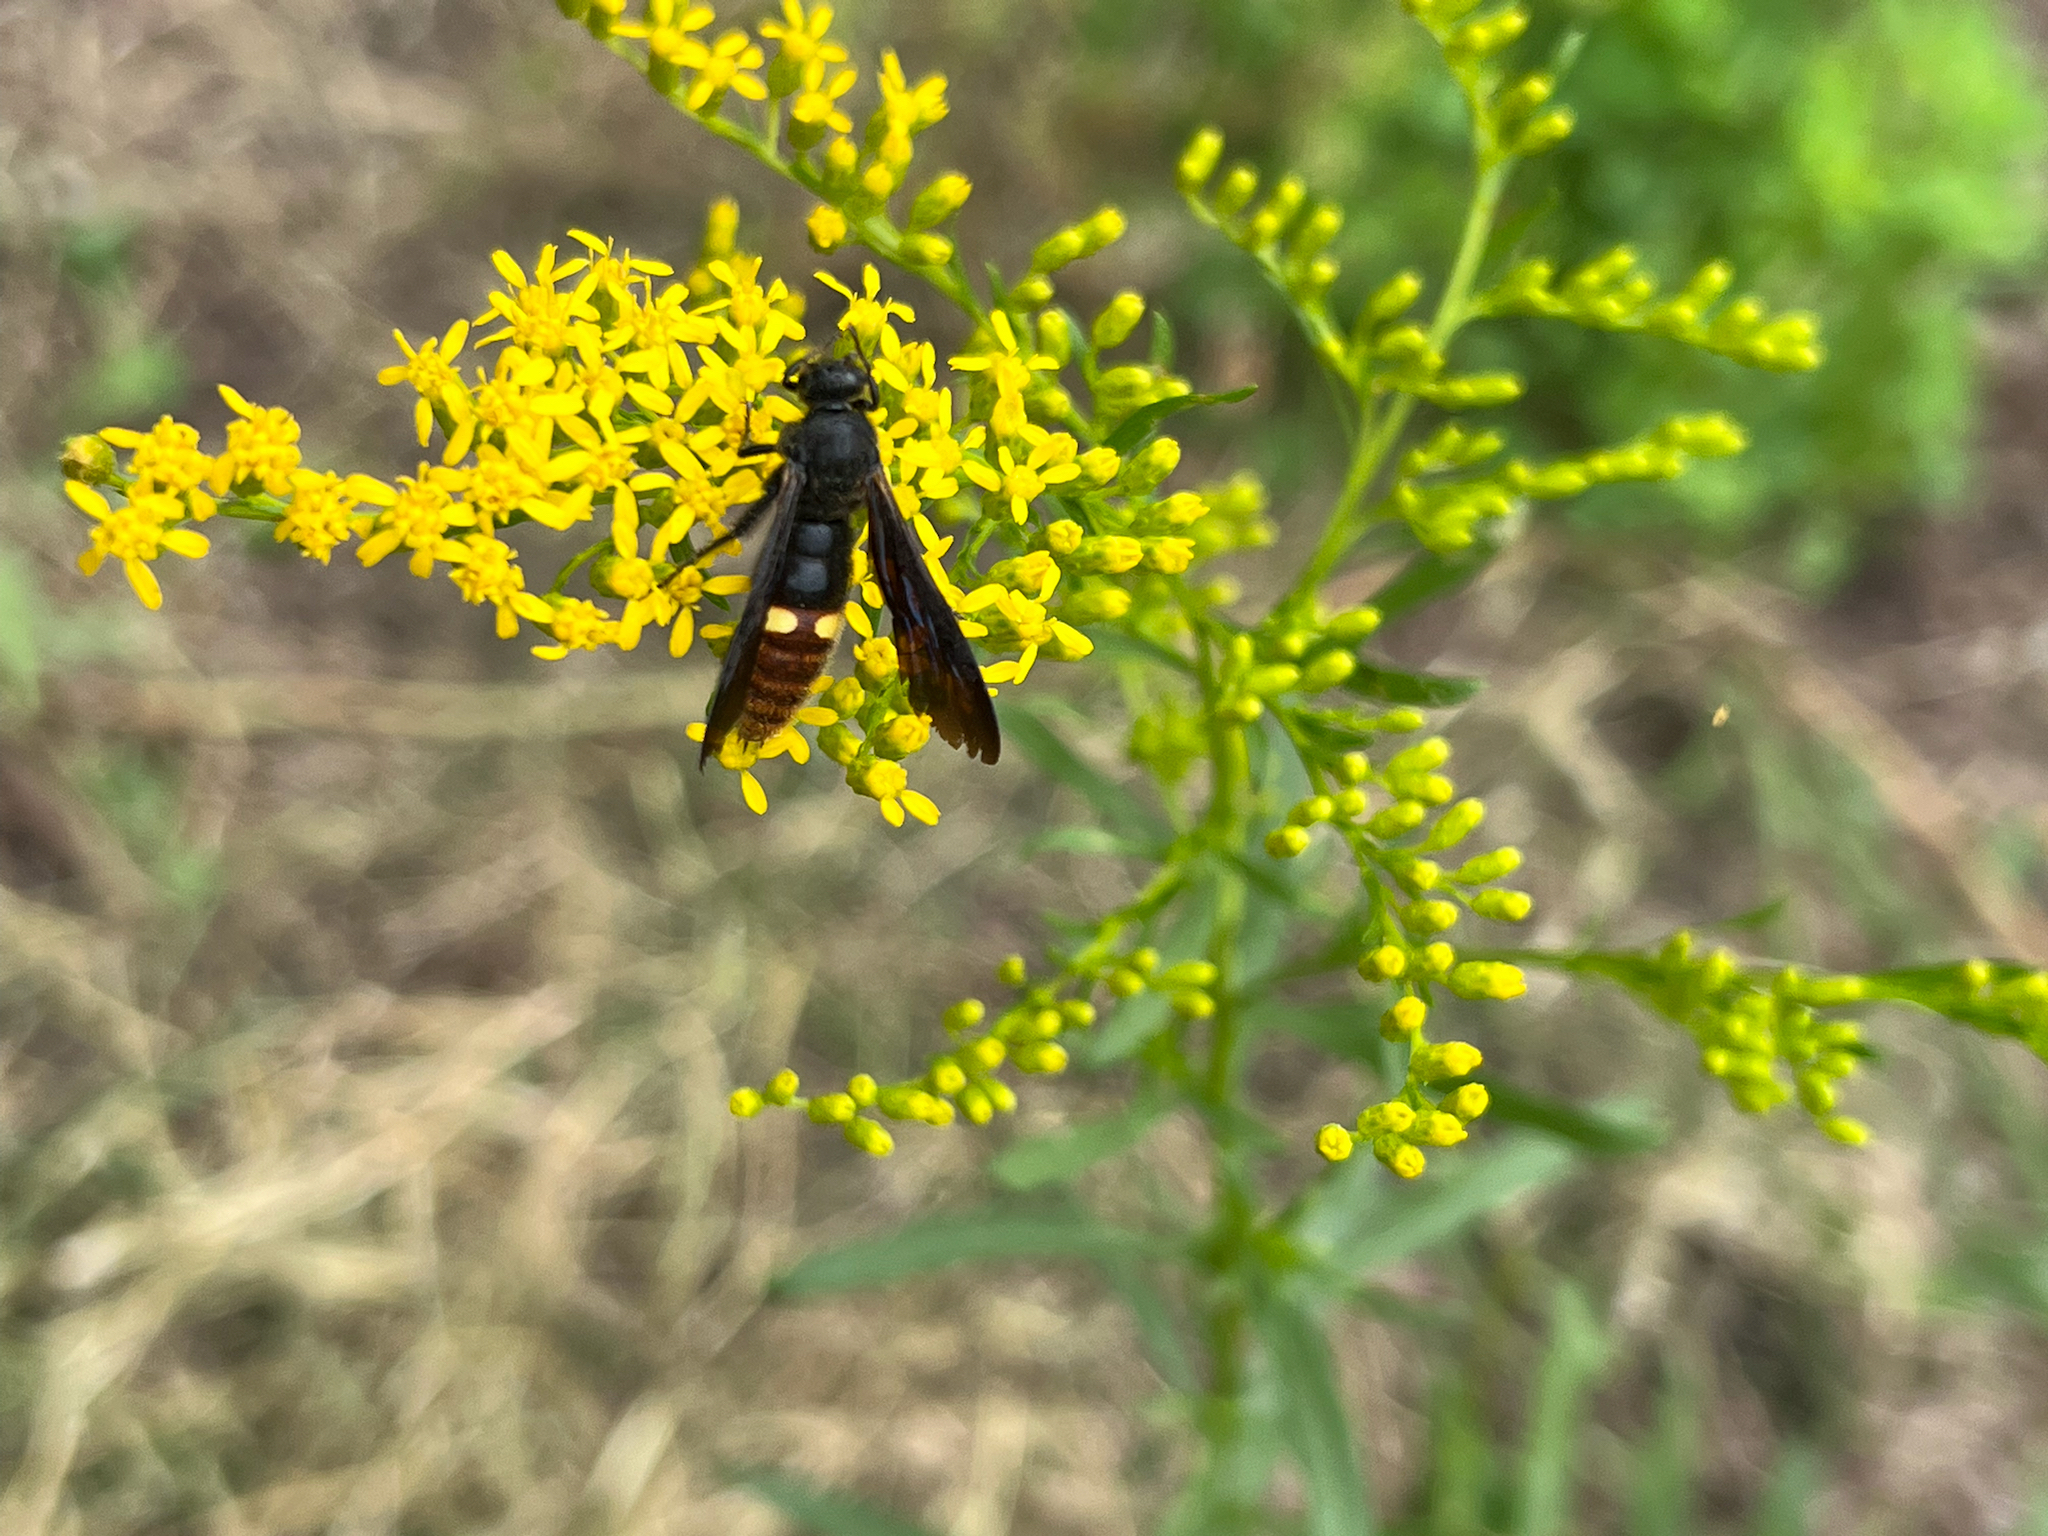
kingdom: Animalia
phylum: Arthropoda
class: Insecta
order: Hymenoptera
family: Scoliidae
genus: Scolia
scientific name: Scolia dubia
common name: Blue-winged scoliid wasp
